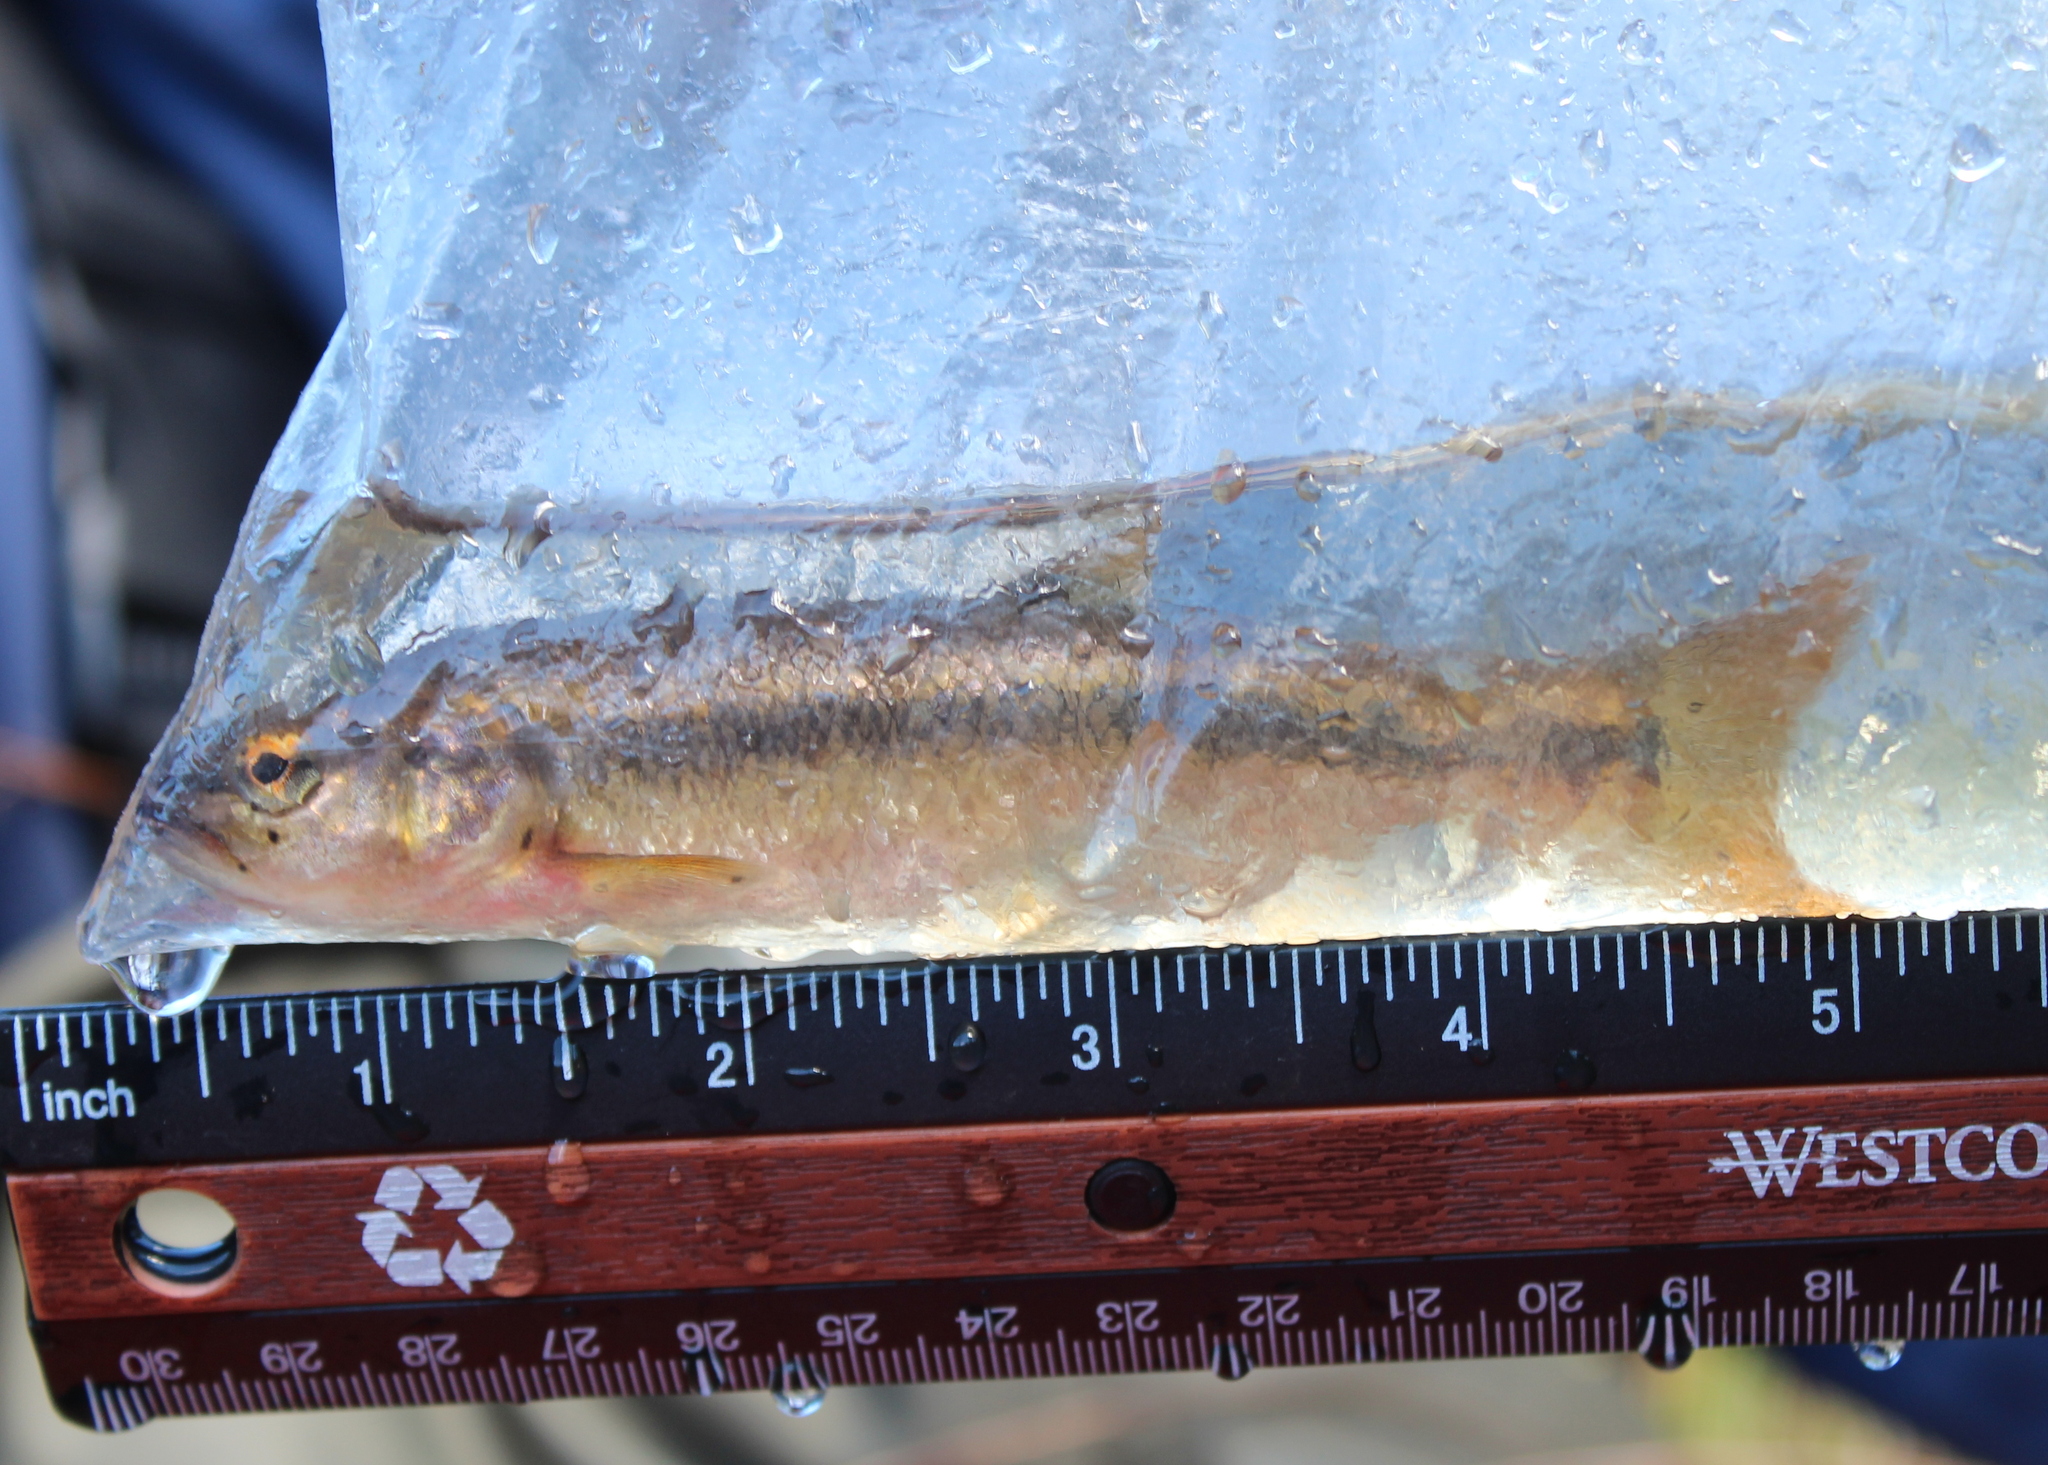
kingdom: Animalia
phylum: Chordata
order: Cypriniformes
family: Cyprinidae
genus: Semotilus
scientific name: Semotilus atromaculatus
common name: Creek chub
